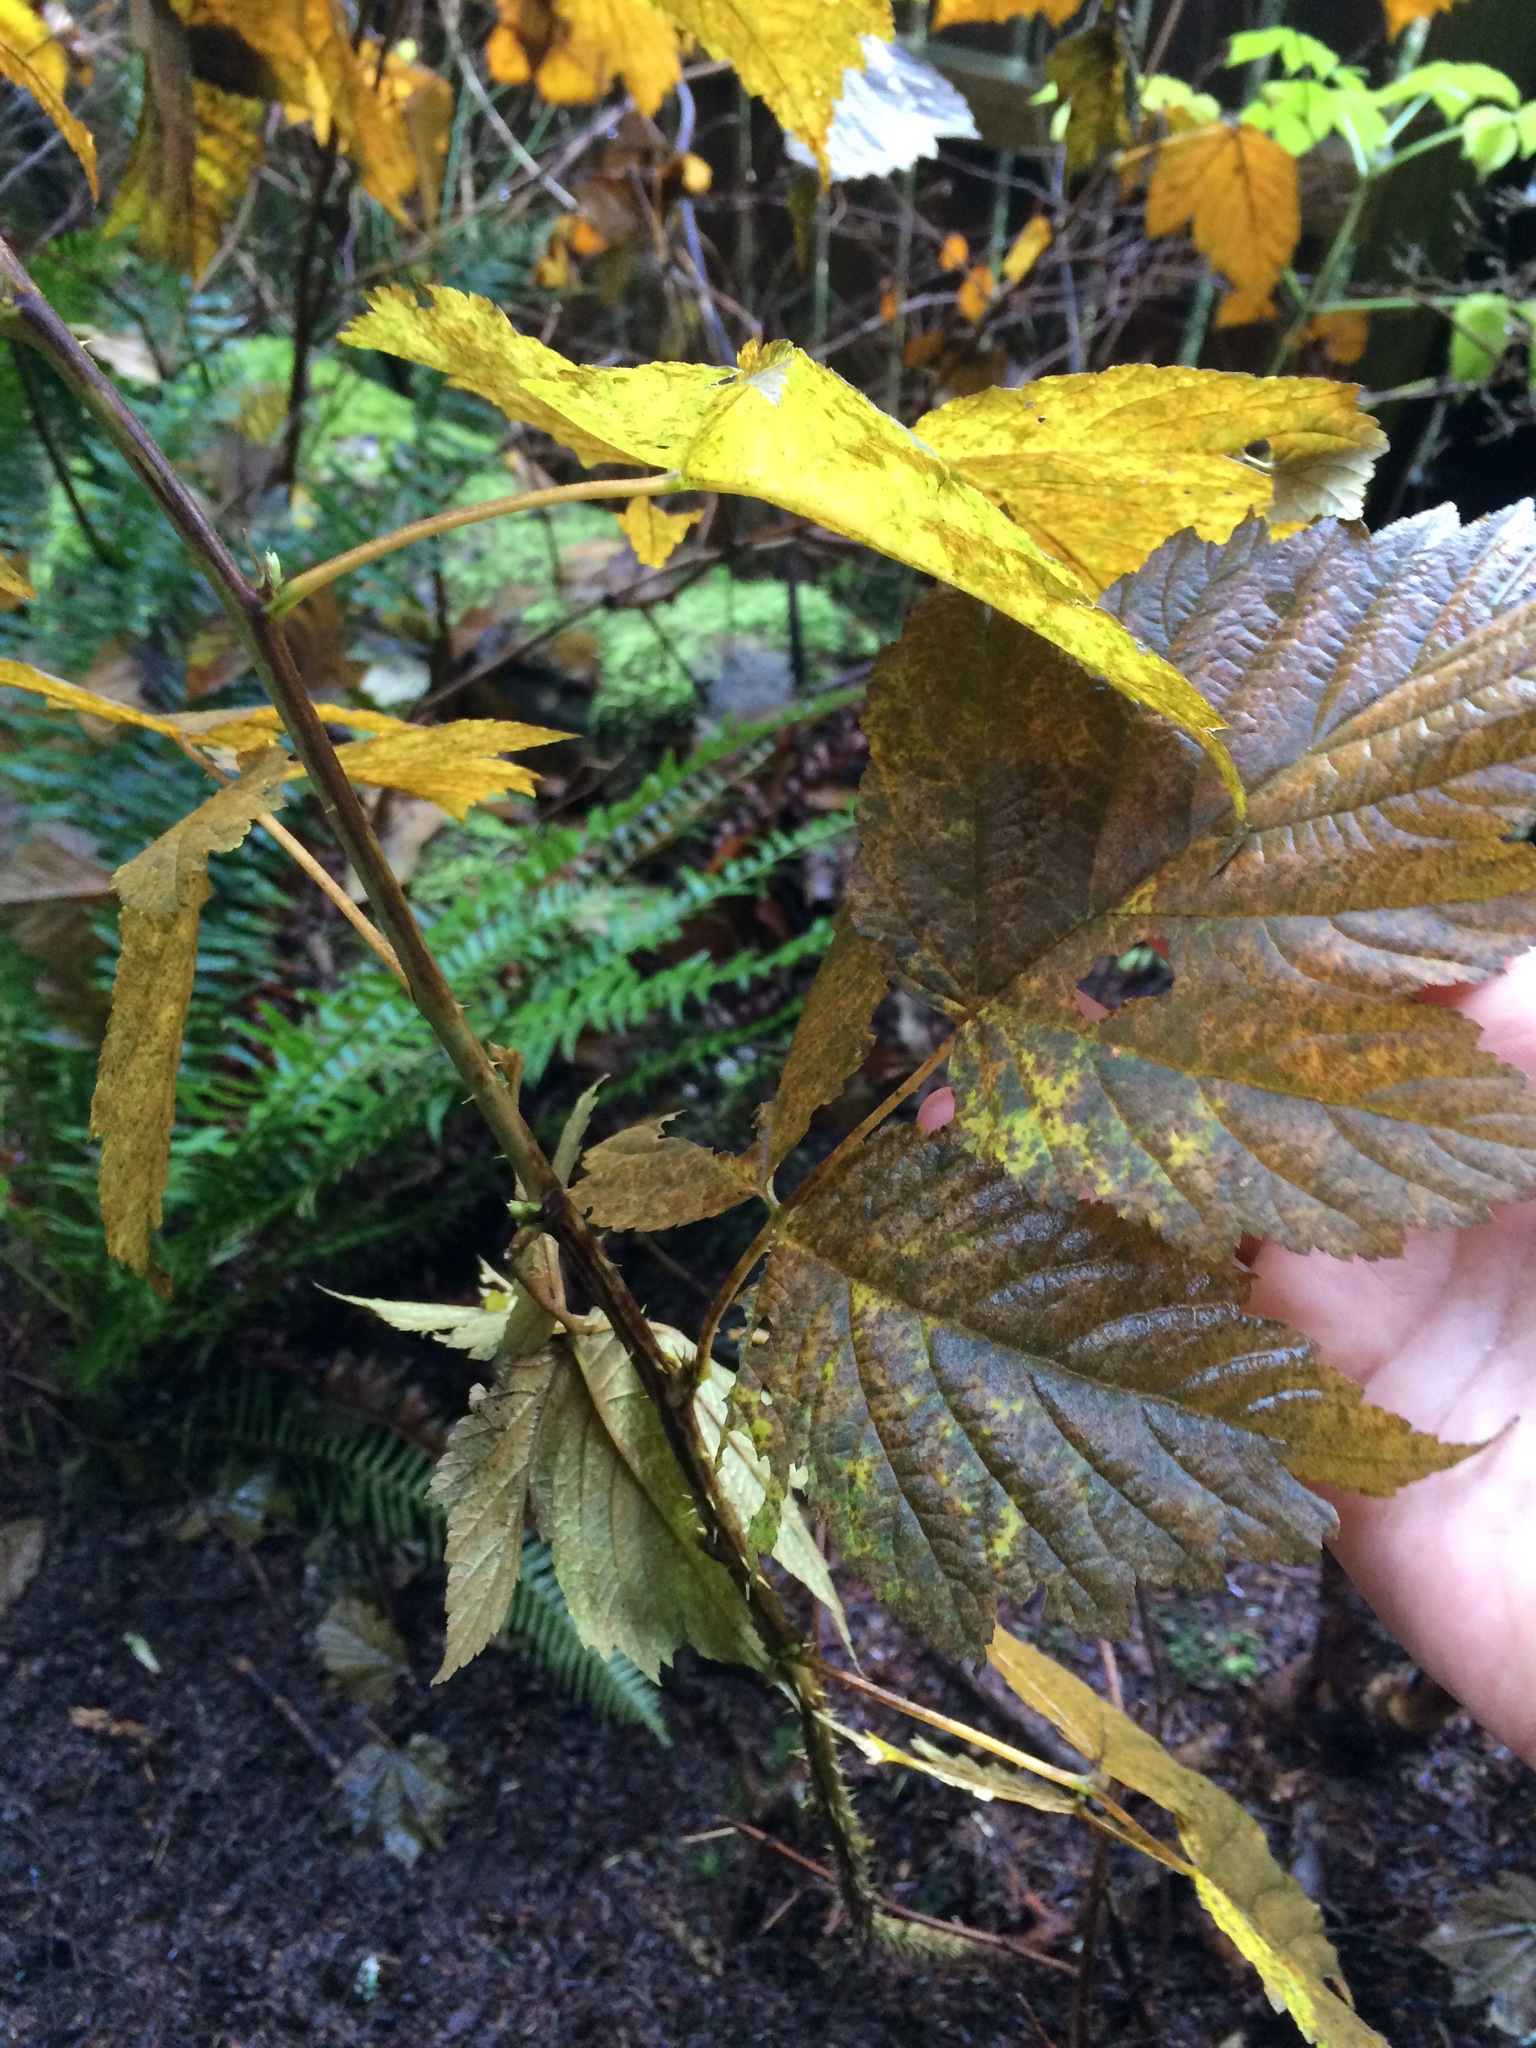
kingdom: Plantae
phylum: Tracheophyta
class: Magnoliopsida
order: Rosales
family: Rosaceae
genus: Rubus
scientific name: Rubus spectabilis
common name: Salmonberry
